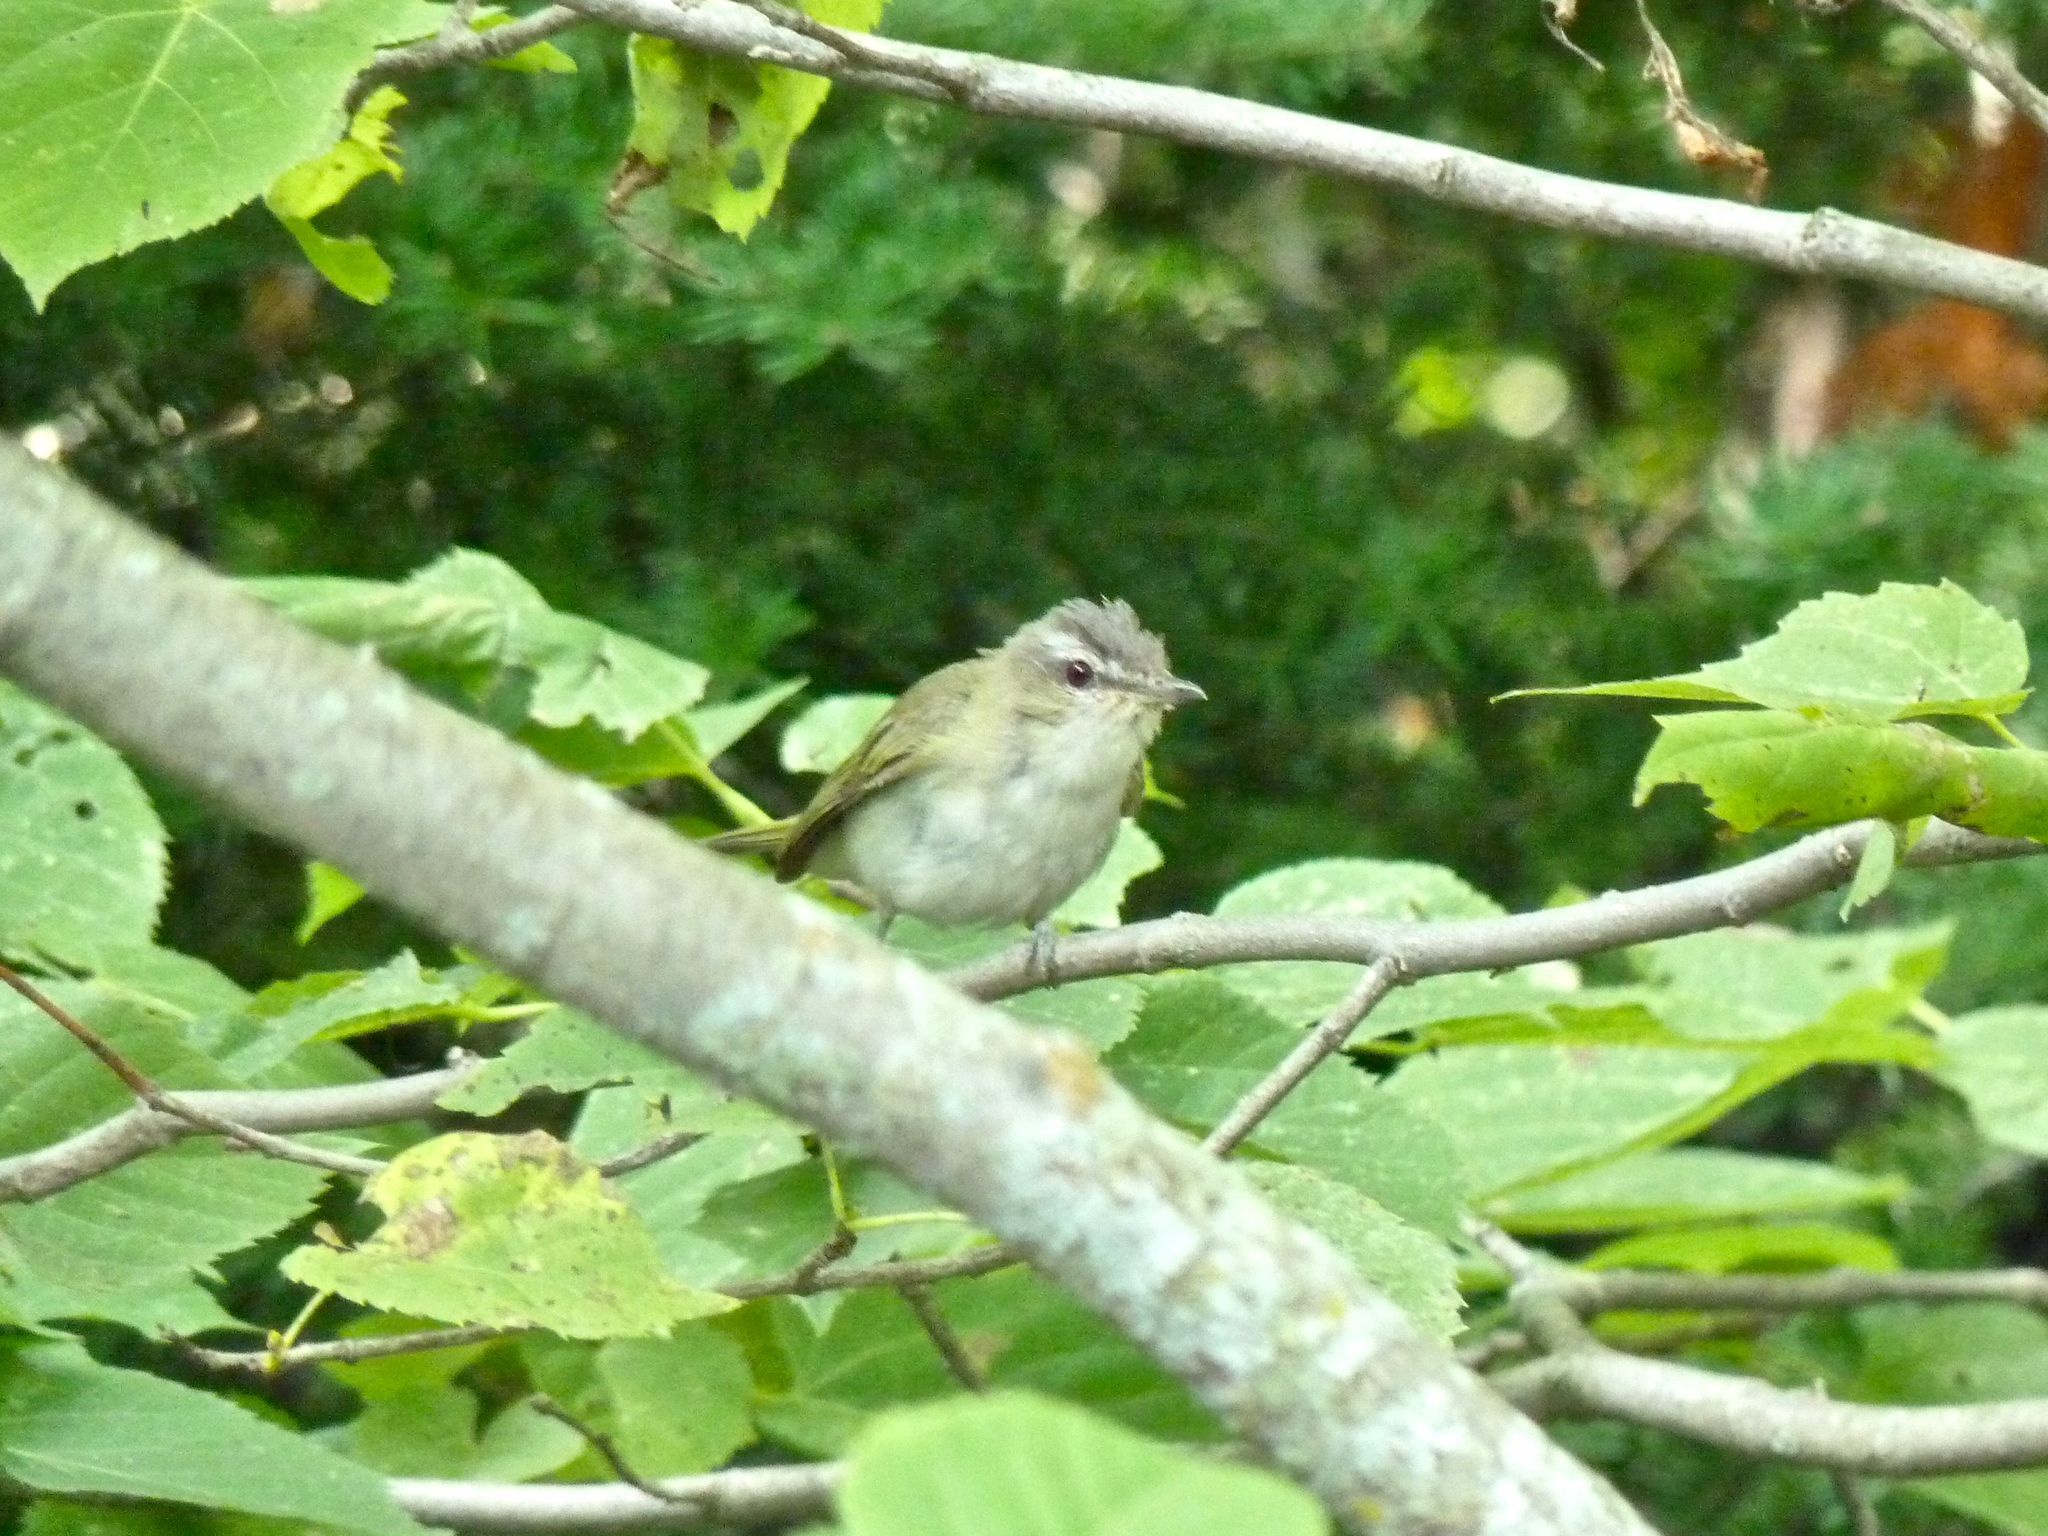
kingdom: Animalia
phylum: Chordata
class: Aves
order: Passeriformes
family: Vireonidae
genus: Vireo
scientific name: Vireo olivaceus
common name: Red-eyed vireo
